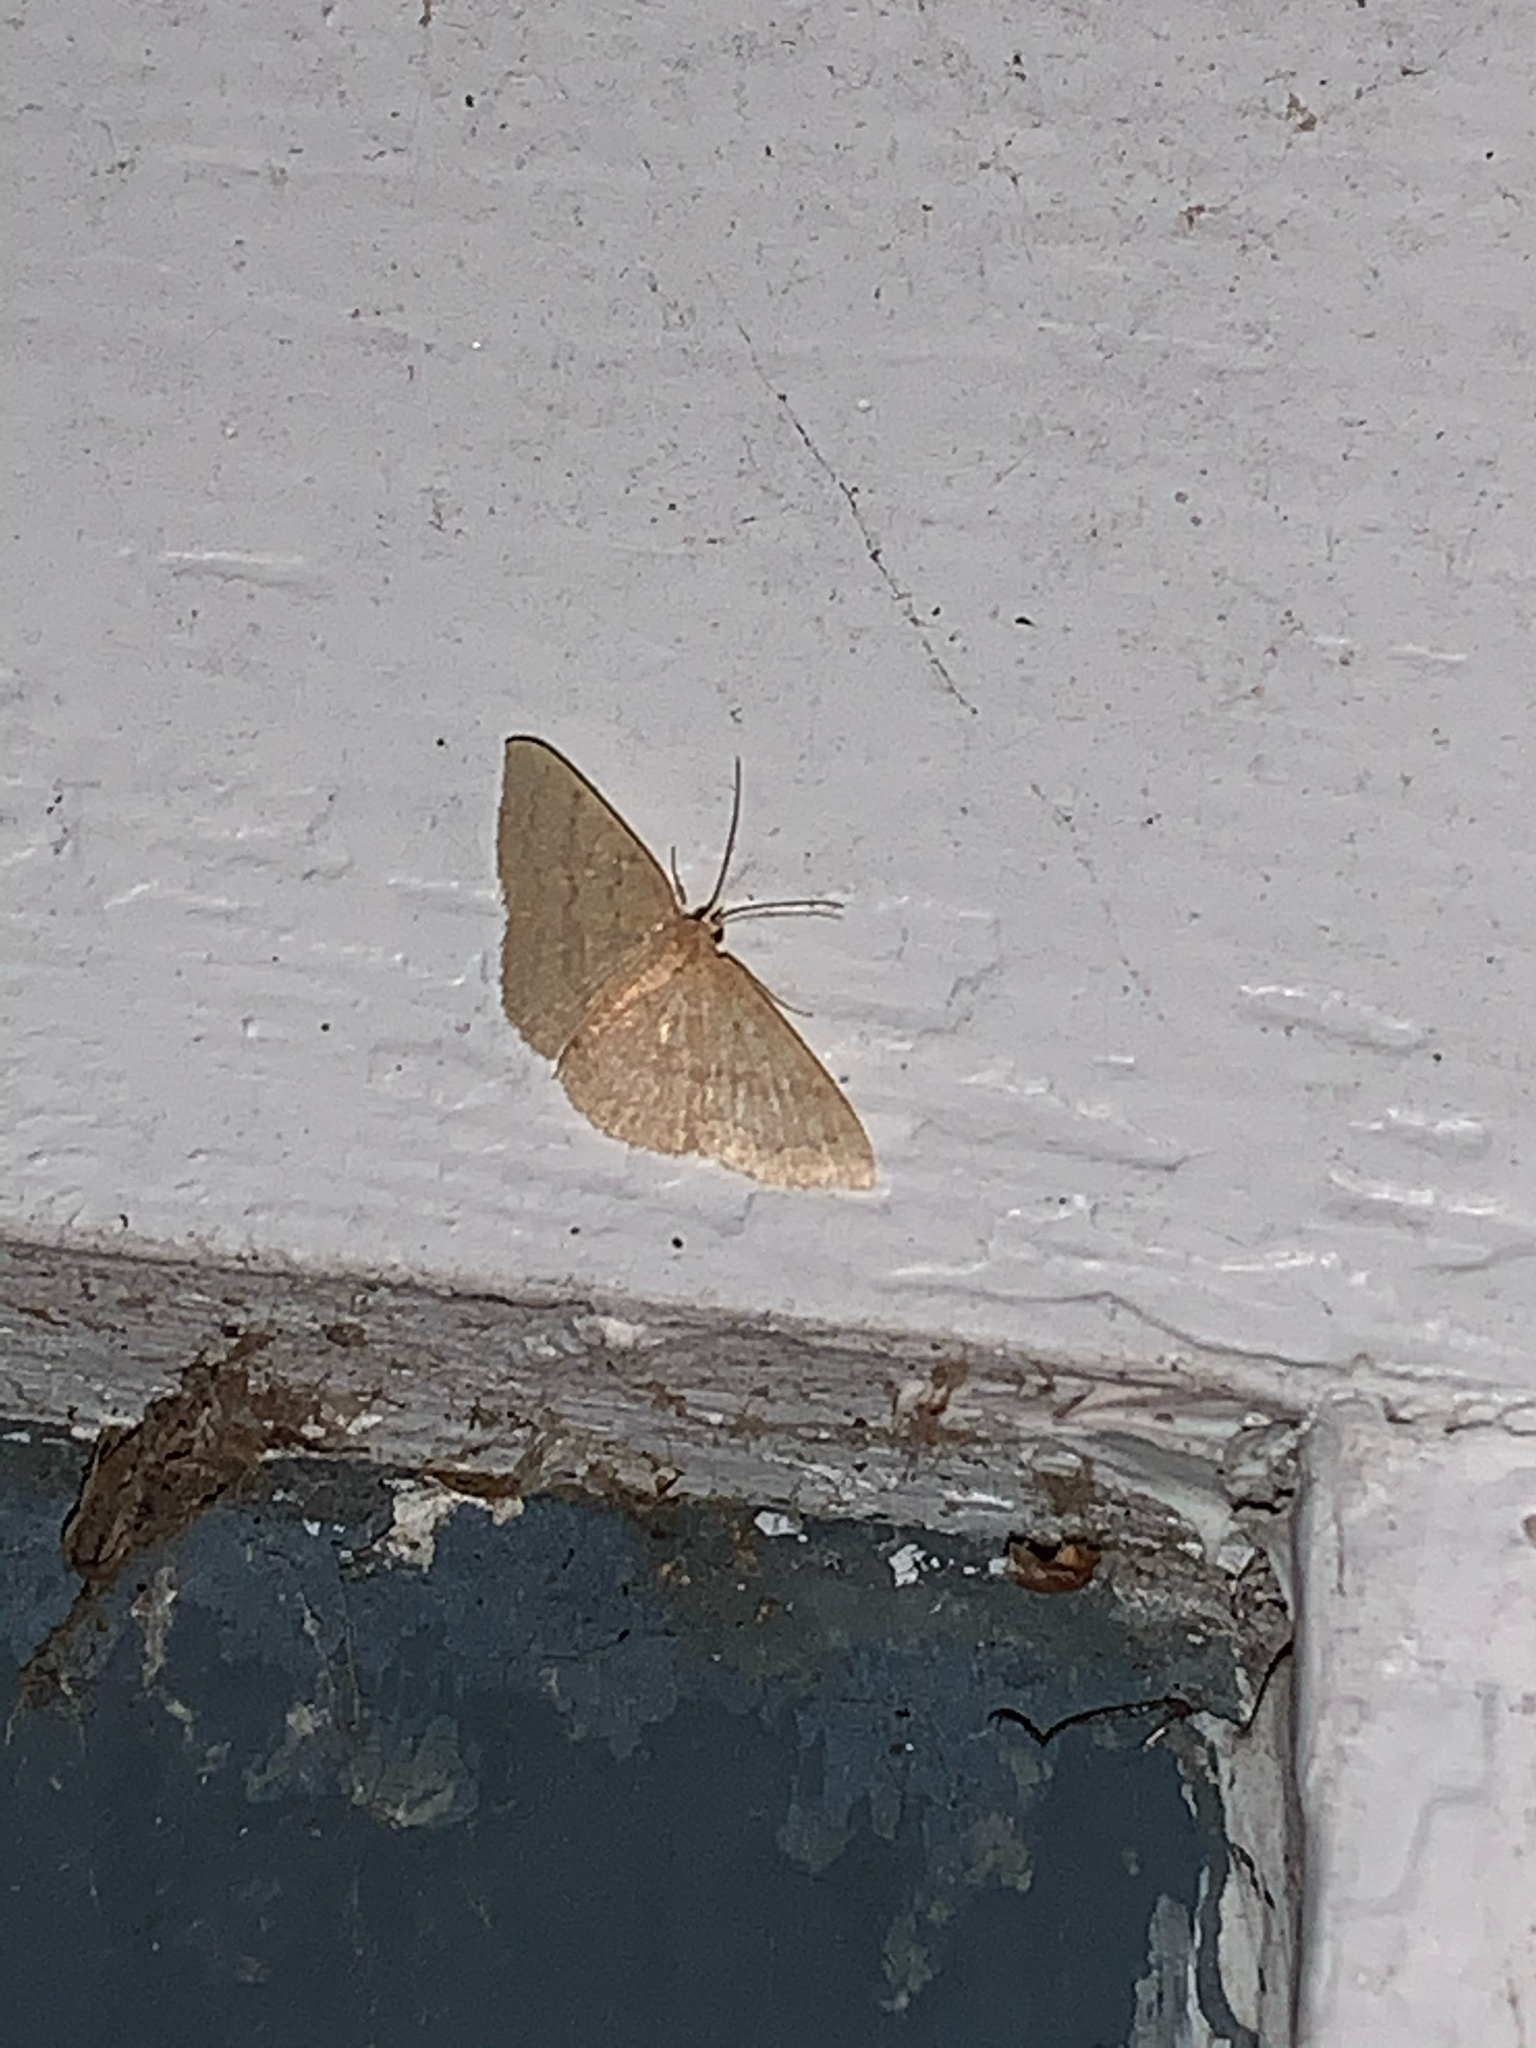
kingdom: Animalia
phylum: Arthropoda
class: Insecta
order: Lepidoptera
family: Geometridae
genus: Pleuroprucha
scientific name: Pleuroprucha insulsaria
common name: Common tan wave
